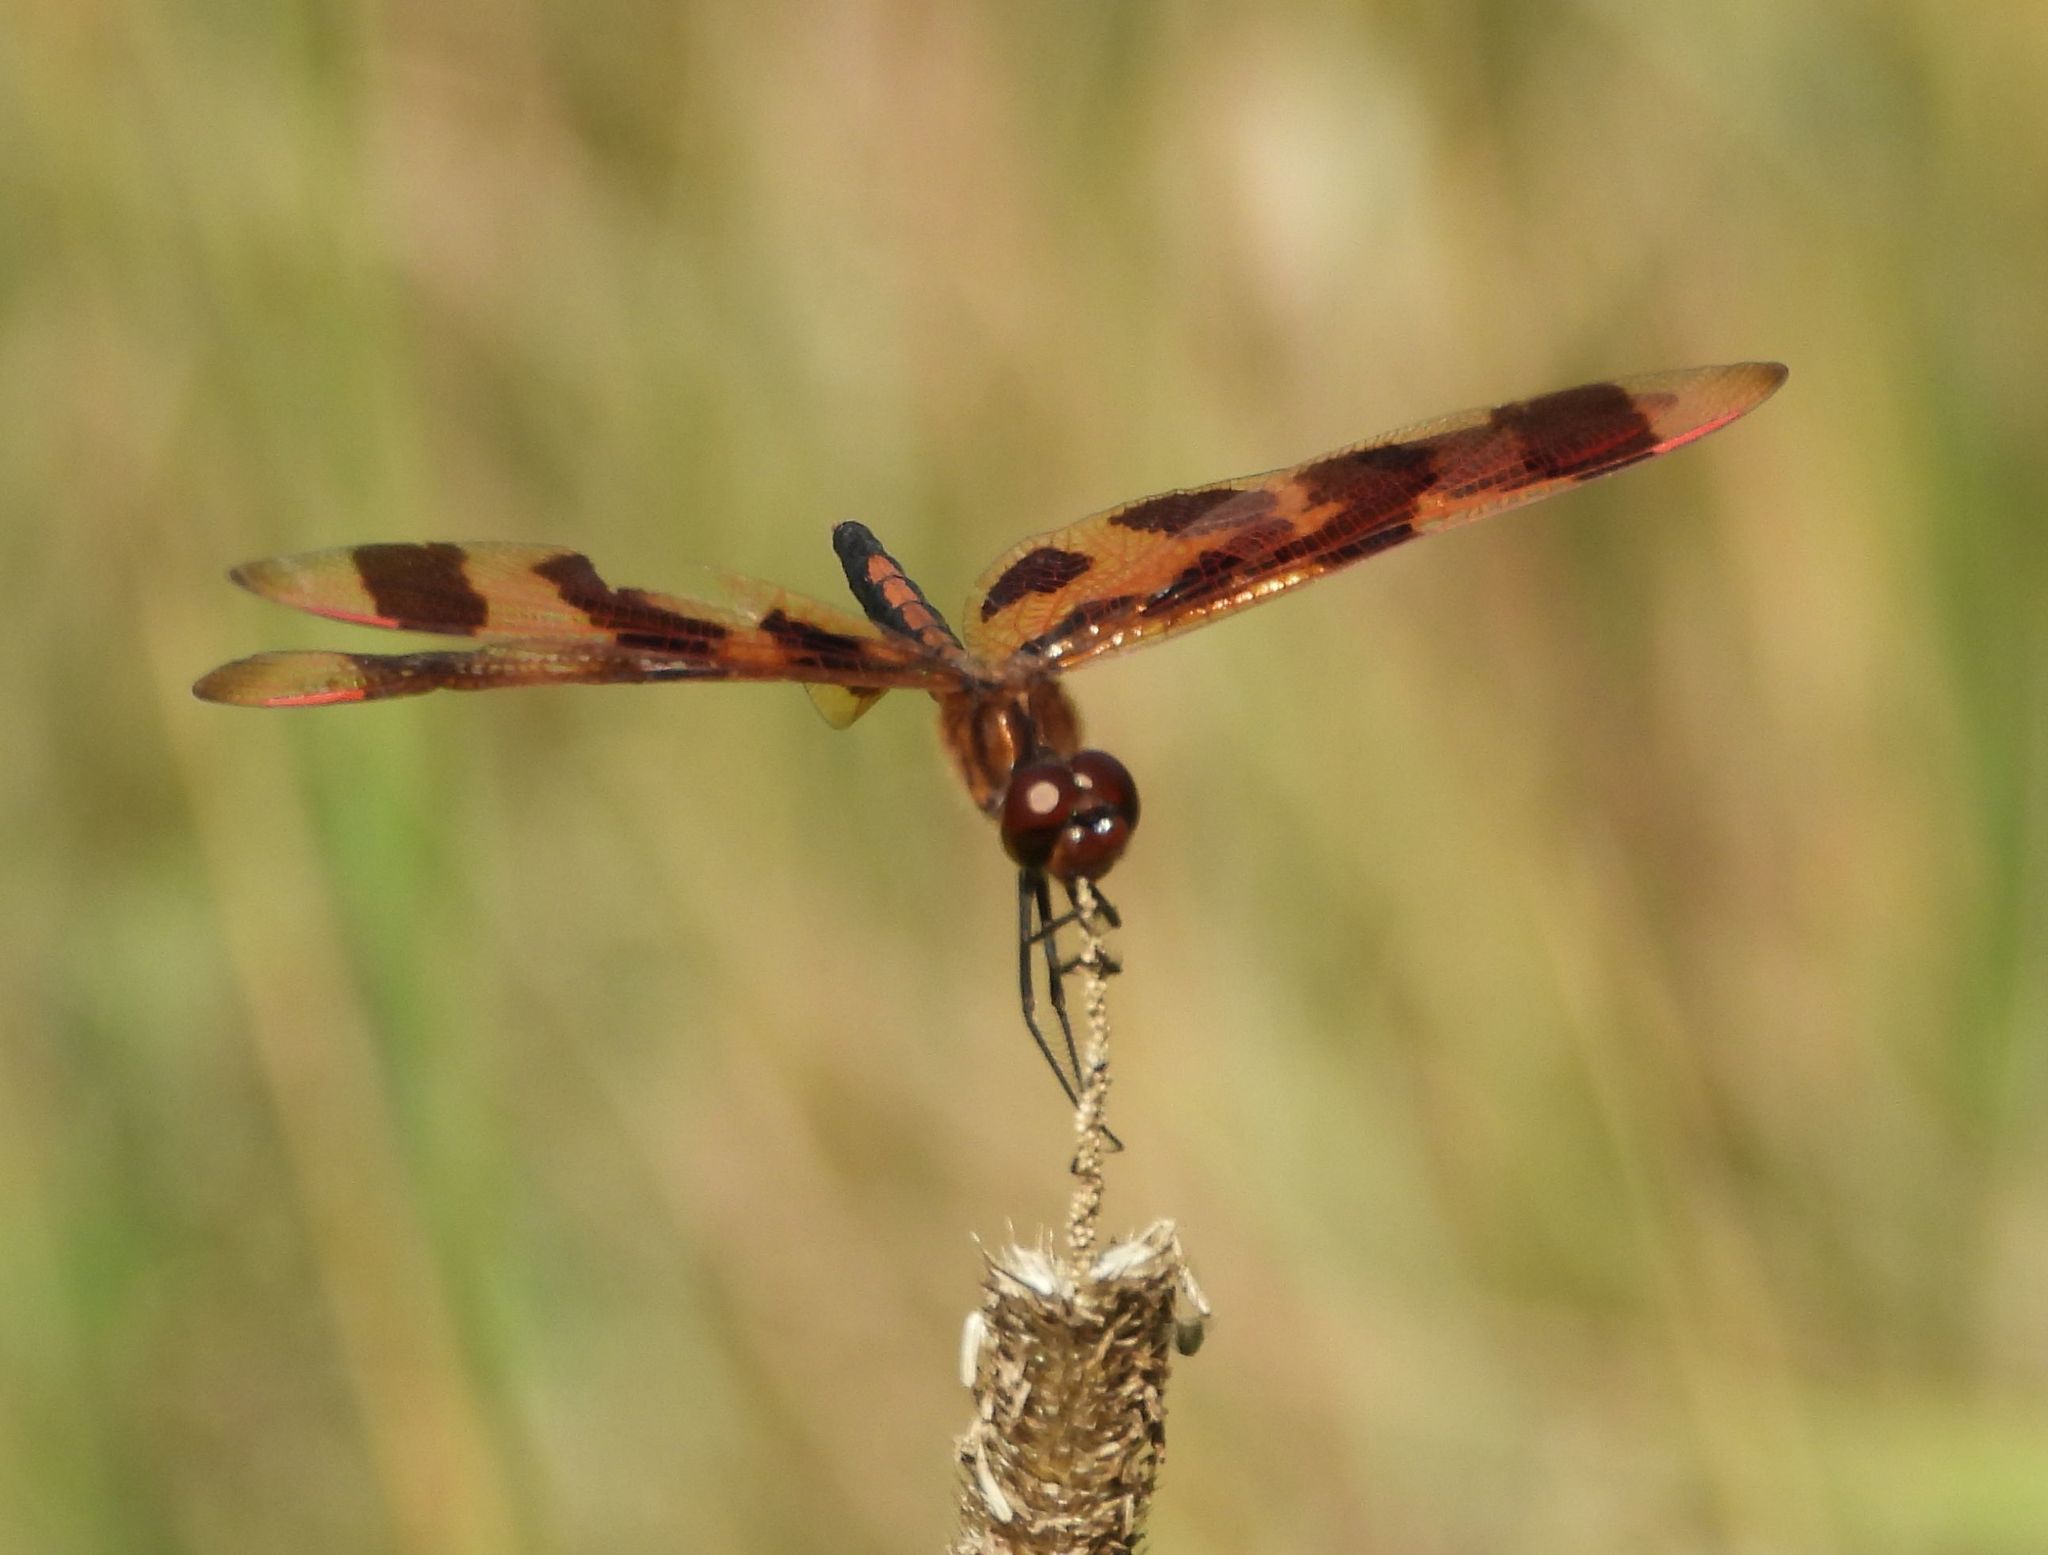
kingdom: Animalia
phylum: Arthropoda
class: Insecta
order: Odonata
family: Libellulidae
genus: Celithemis
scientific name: Celithemis eponina
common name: Halloween pennant
